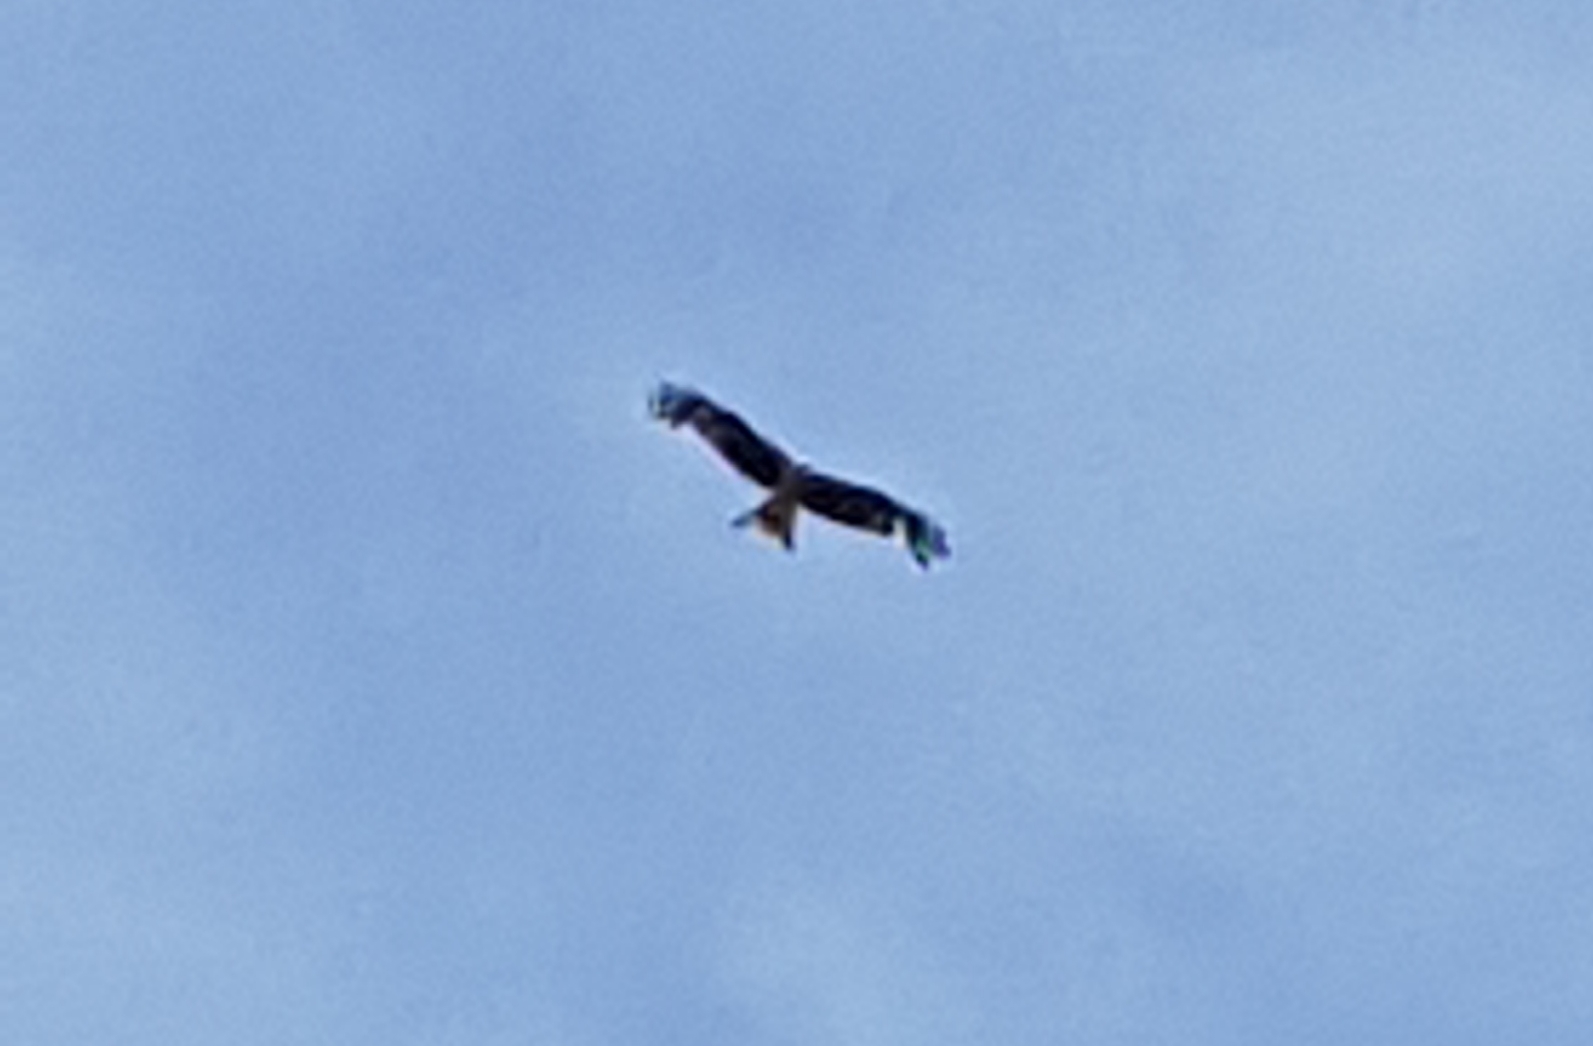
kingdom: Animalia
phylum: Chordata
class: Aves
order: Accipitriformes
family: Accipitridae
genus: Milvus
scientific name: Milvus milvus
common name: Red kite
